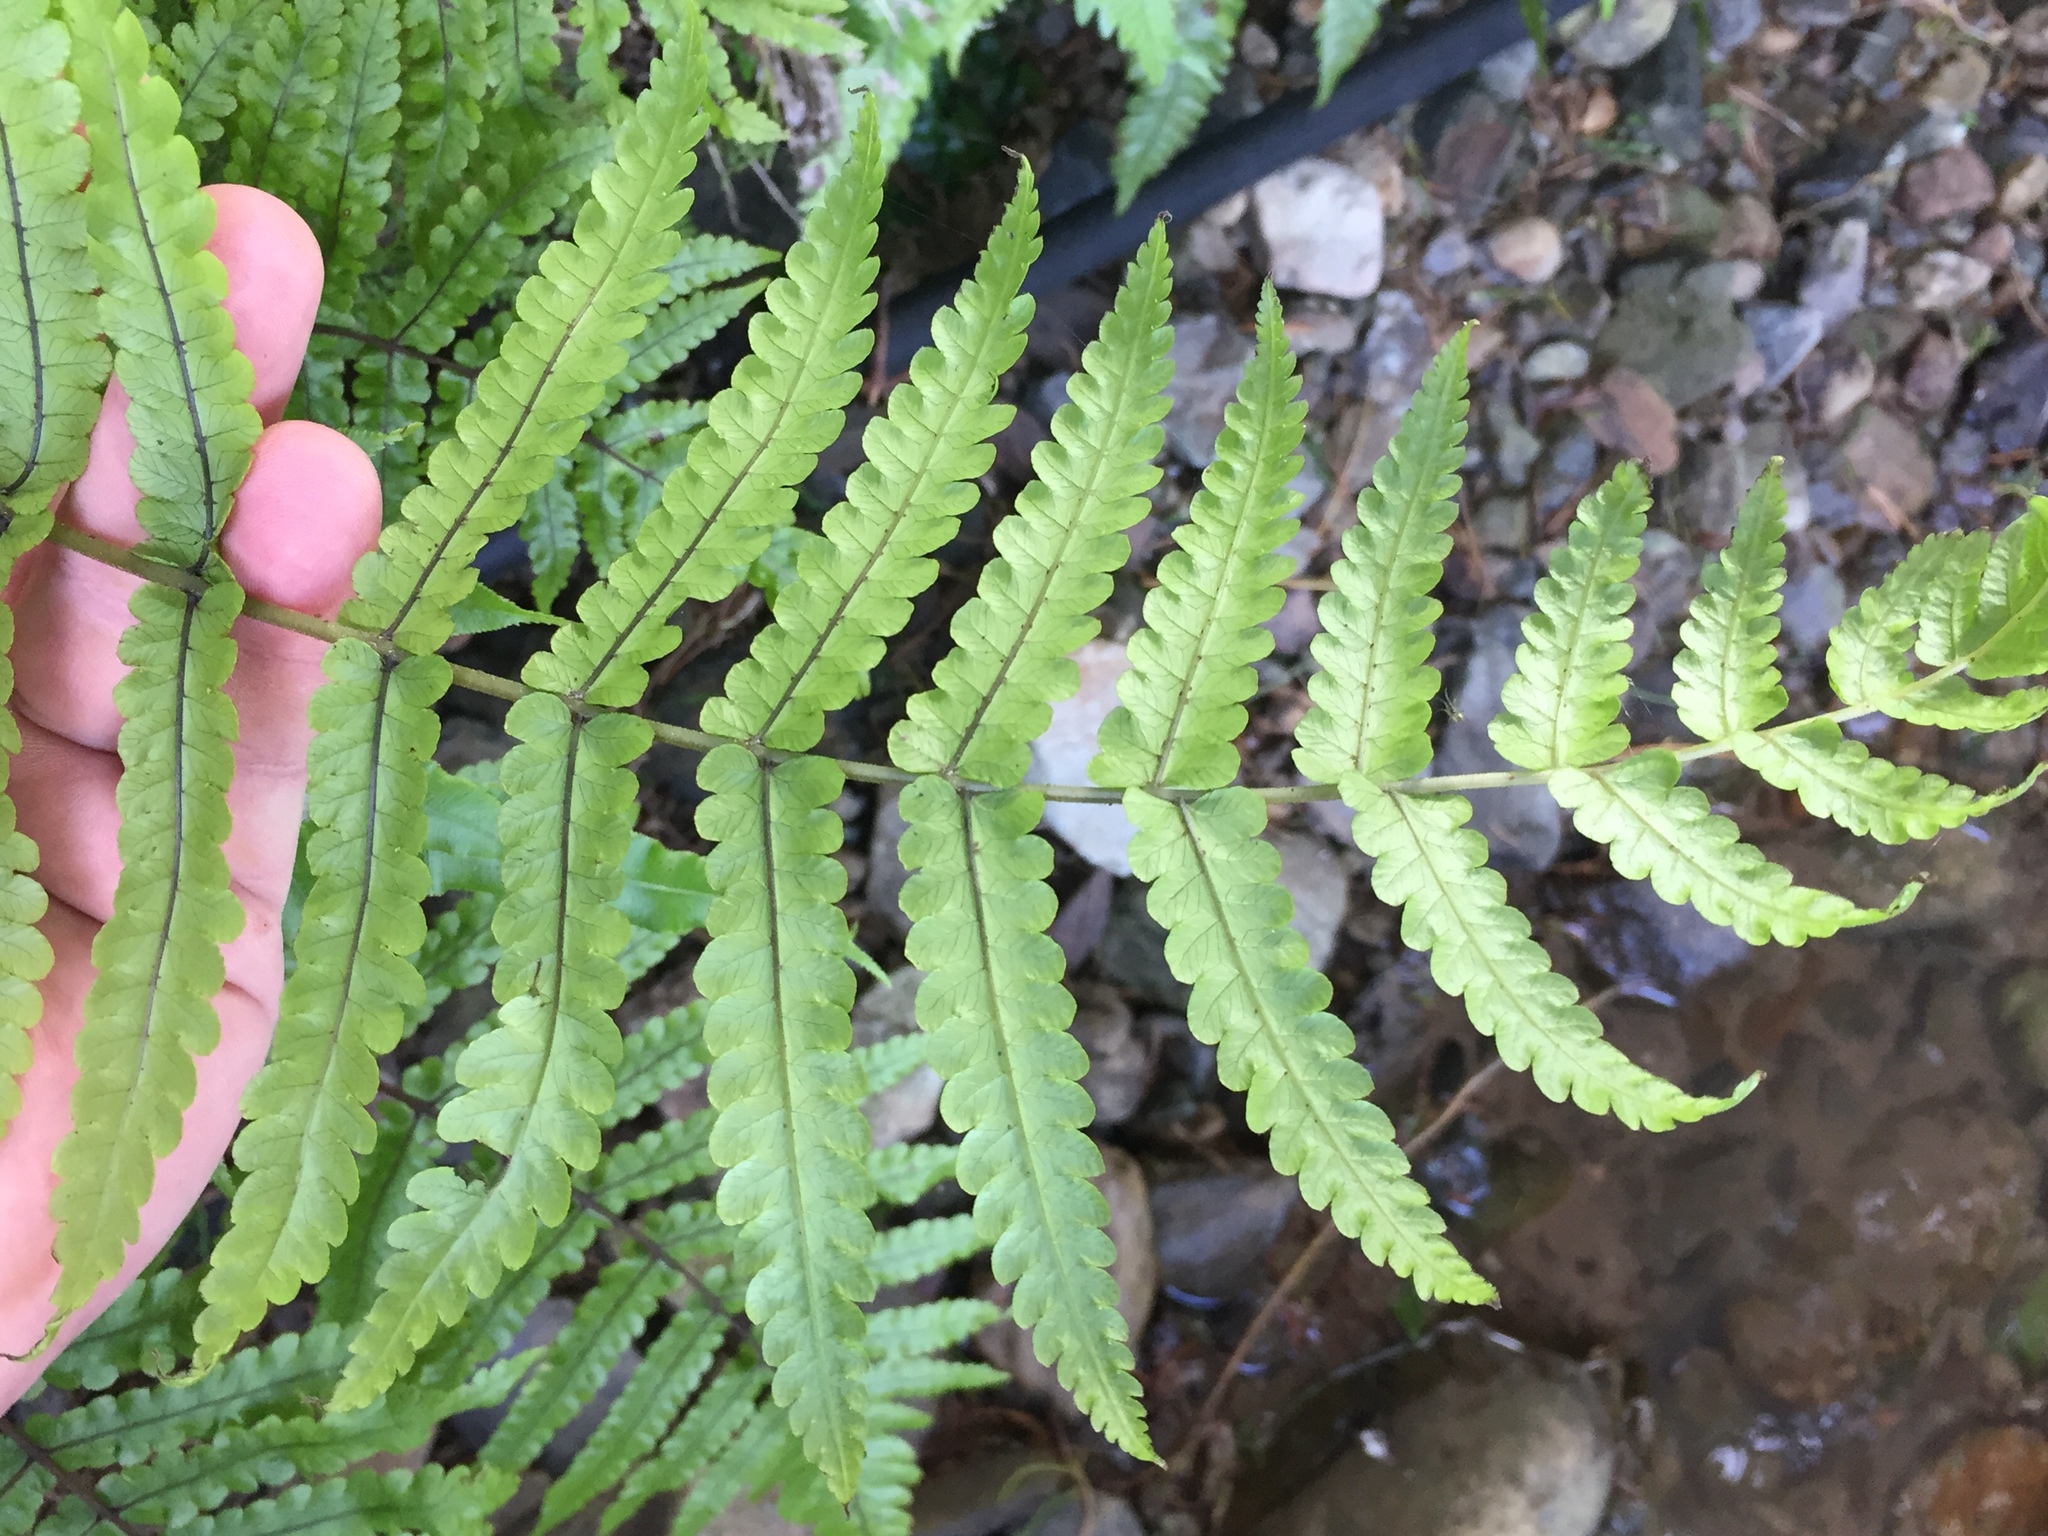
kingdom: Plantae
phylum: Tracheophyta
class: Polypodiopsida
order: Polypodiales
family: Thelypteridaceae
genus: Pakau
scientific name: Pakau pennigera
